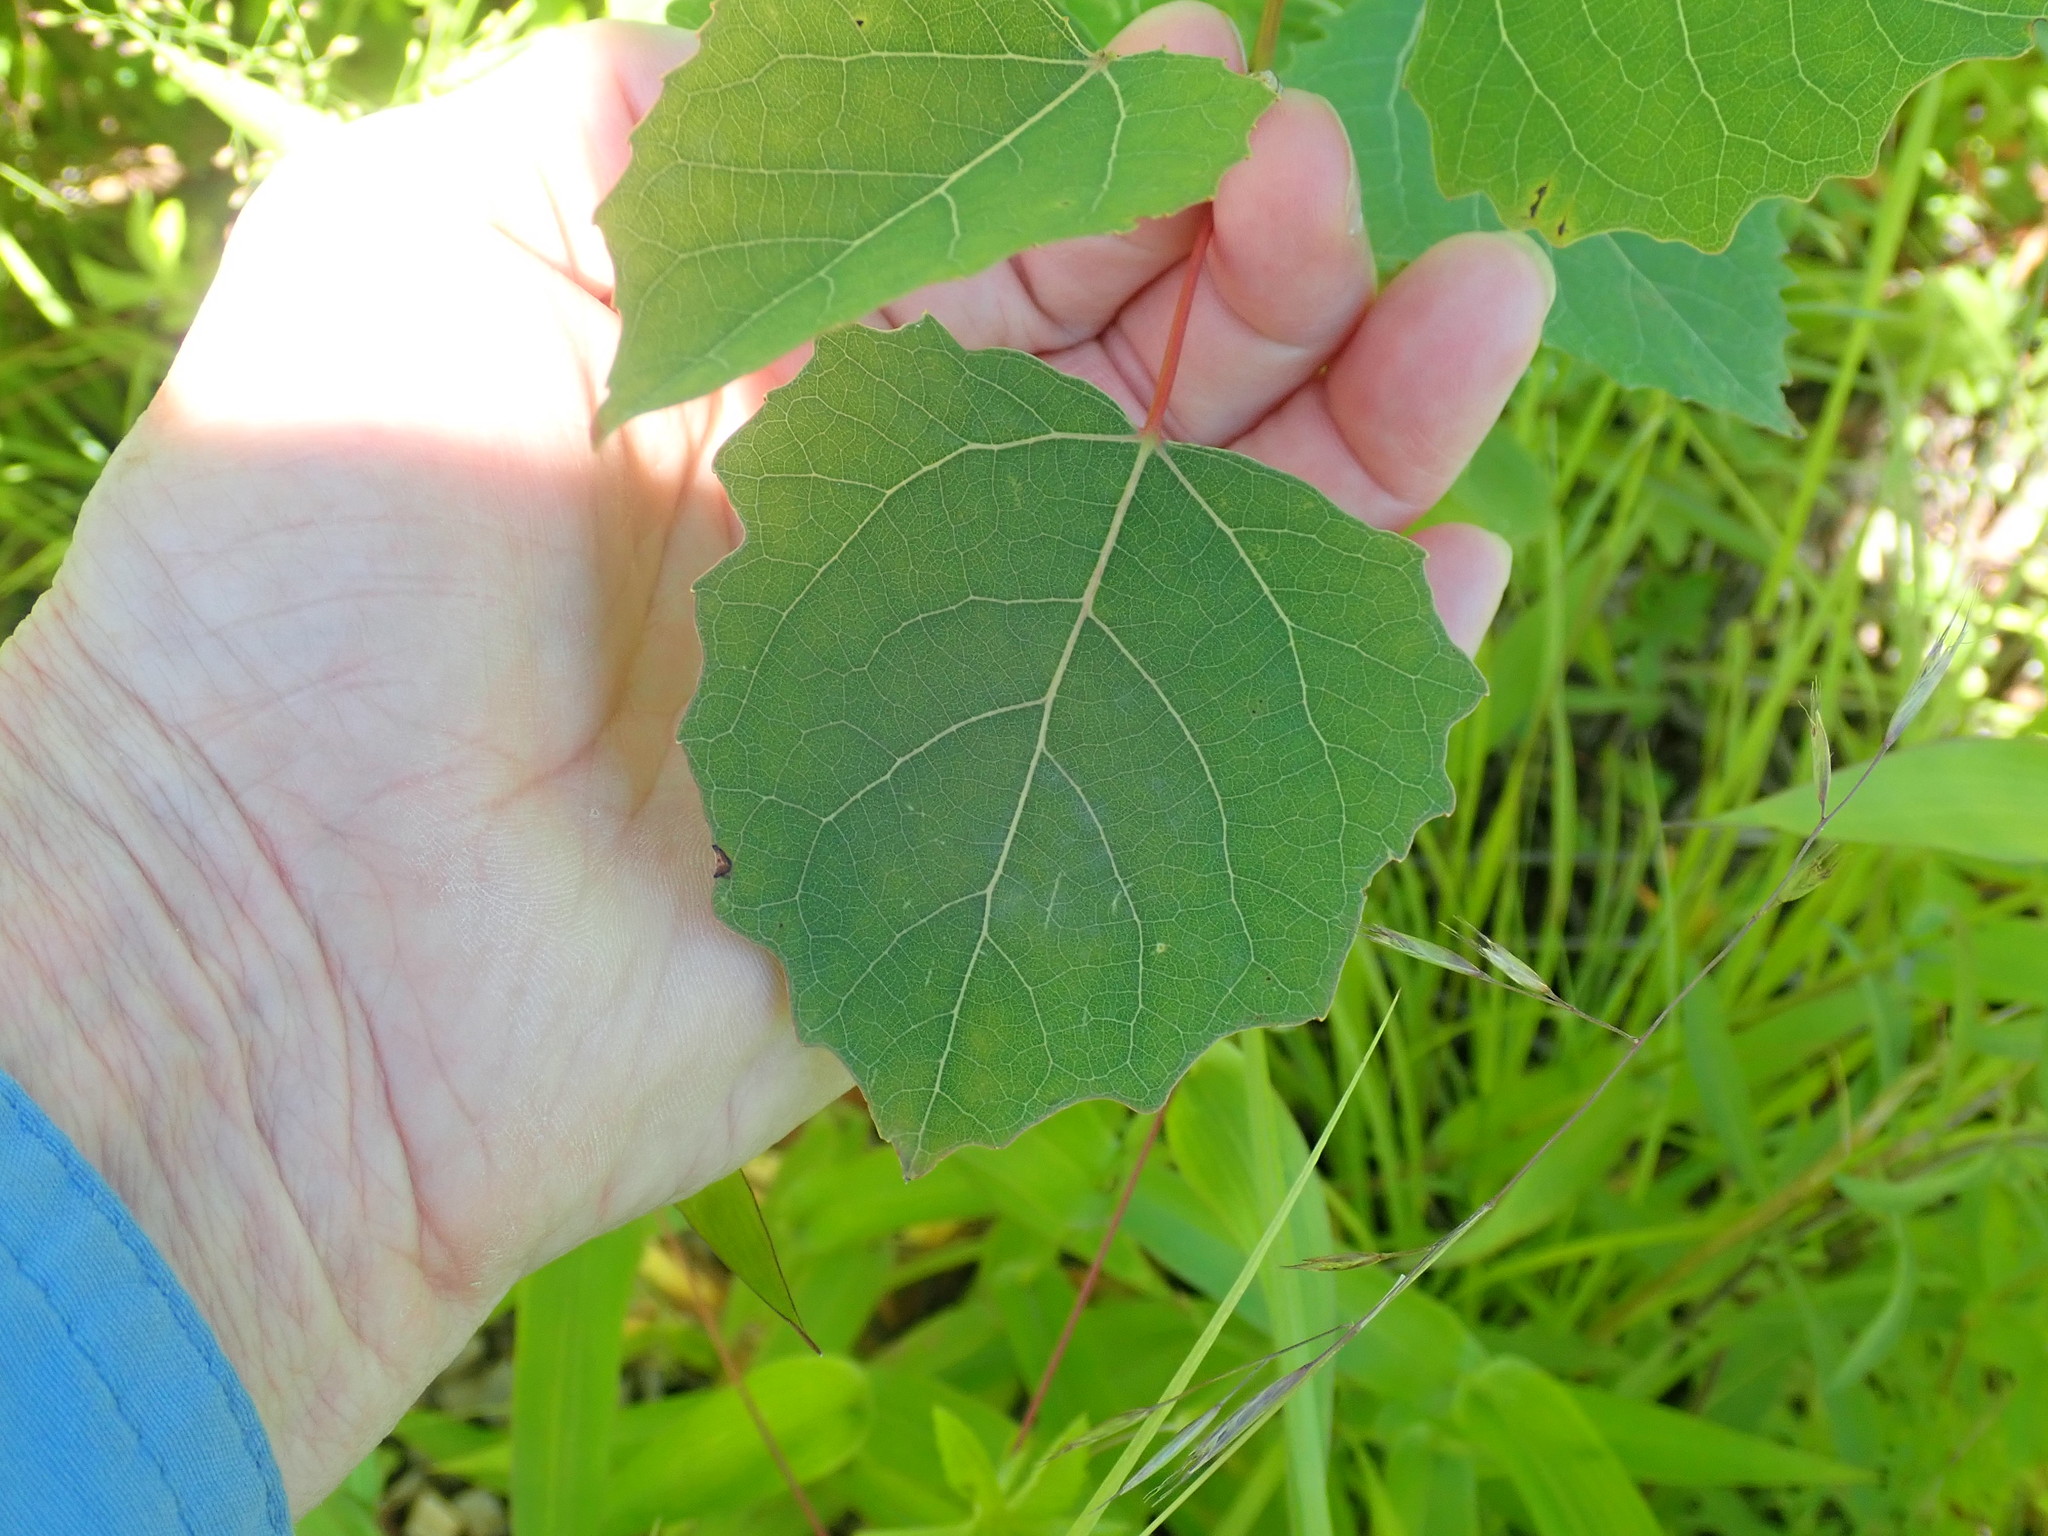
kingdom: Plantae
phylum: Tracheophyta
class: Magnoliopsida
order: Malpighiales
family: Salicaceae
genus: Populus
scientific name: Populus grandidentata
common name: Bigtooth aspen
